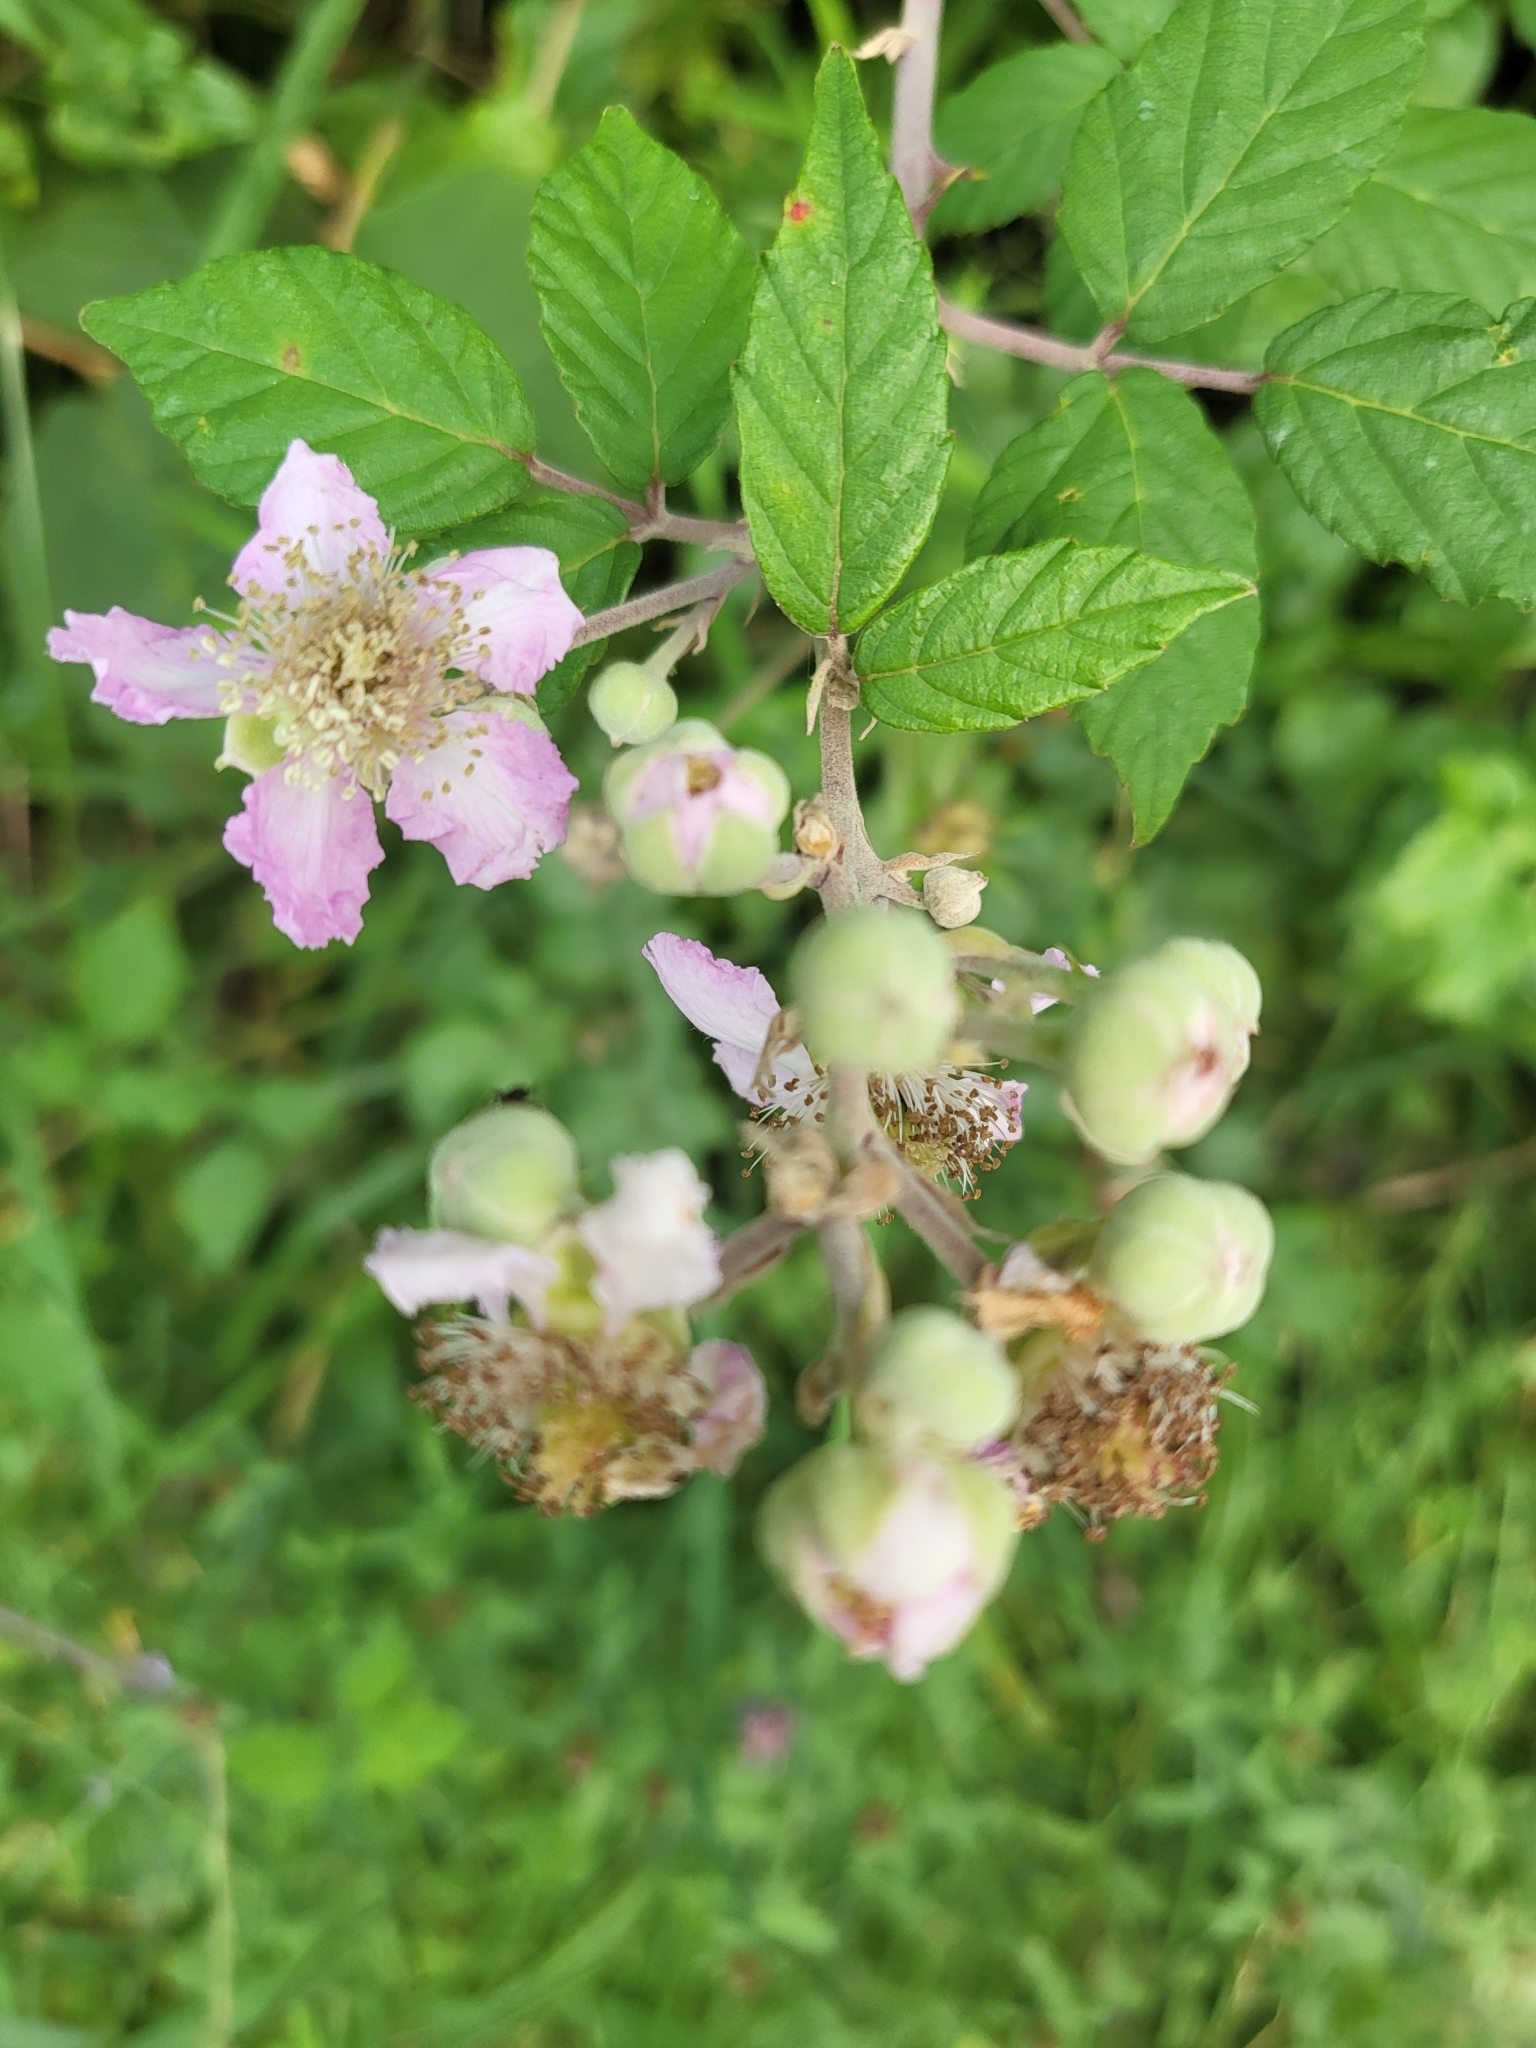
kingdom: Plantae
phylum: Tracheophyta
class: Magnoliopsida
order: Rosales
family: Rosaceae
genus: Rubus
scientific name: Rubus ulmifolius
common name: Elmleaf blackberry
